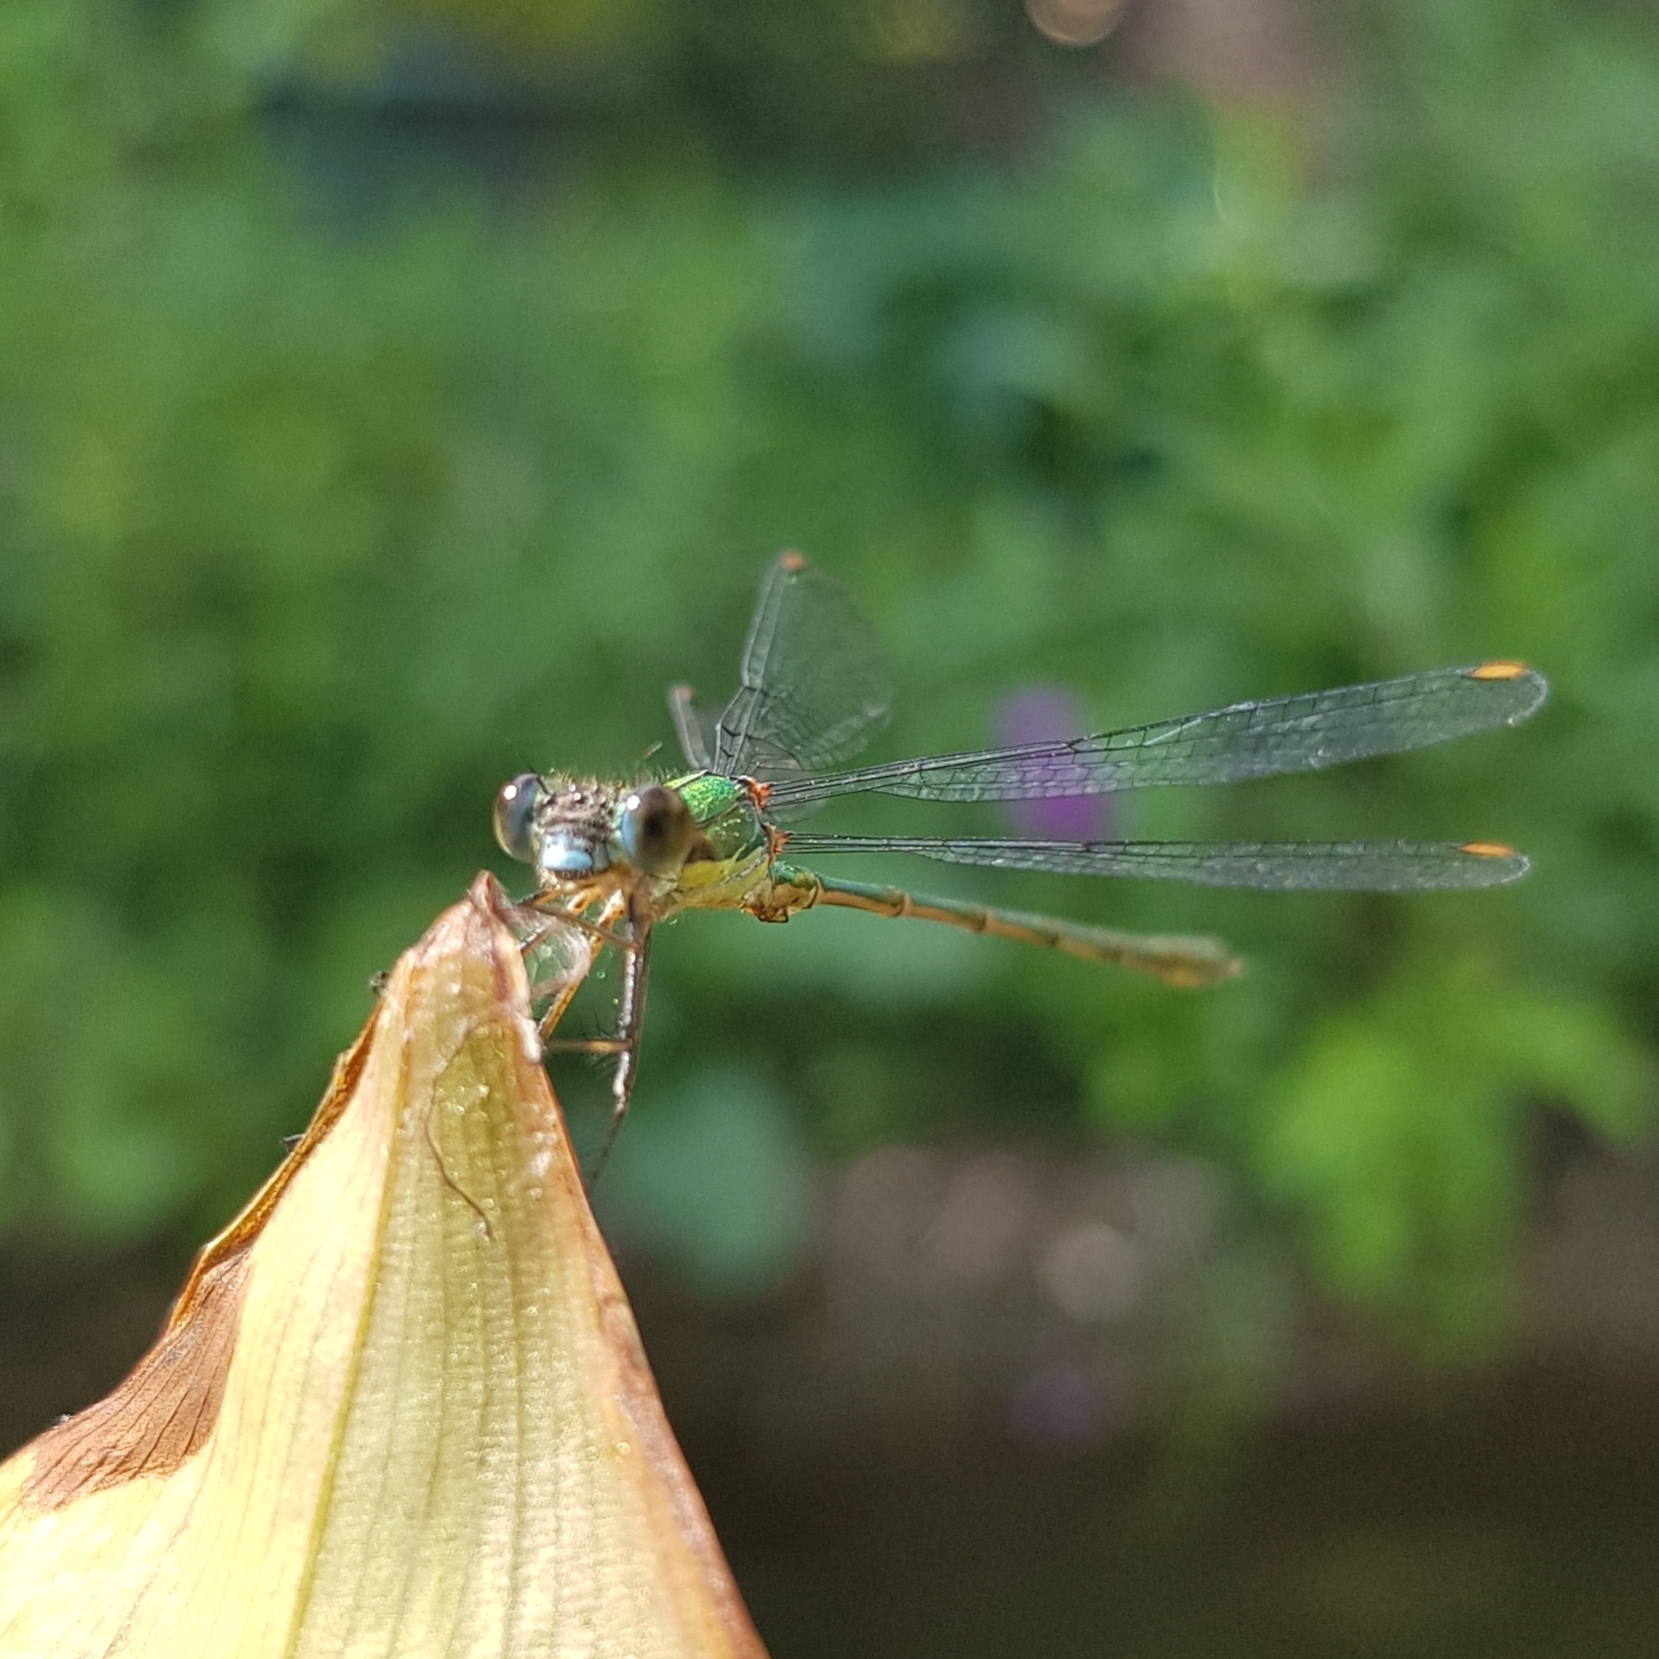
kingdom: Animalia
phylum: Arthropoda
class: Insecta
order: Odonata
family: Lestidae
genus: Chalcolestes
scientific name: Chalcolestes viridis
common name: Green emerald damselfly
